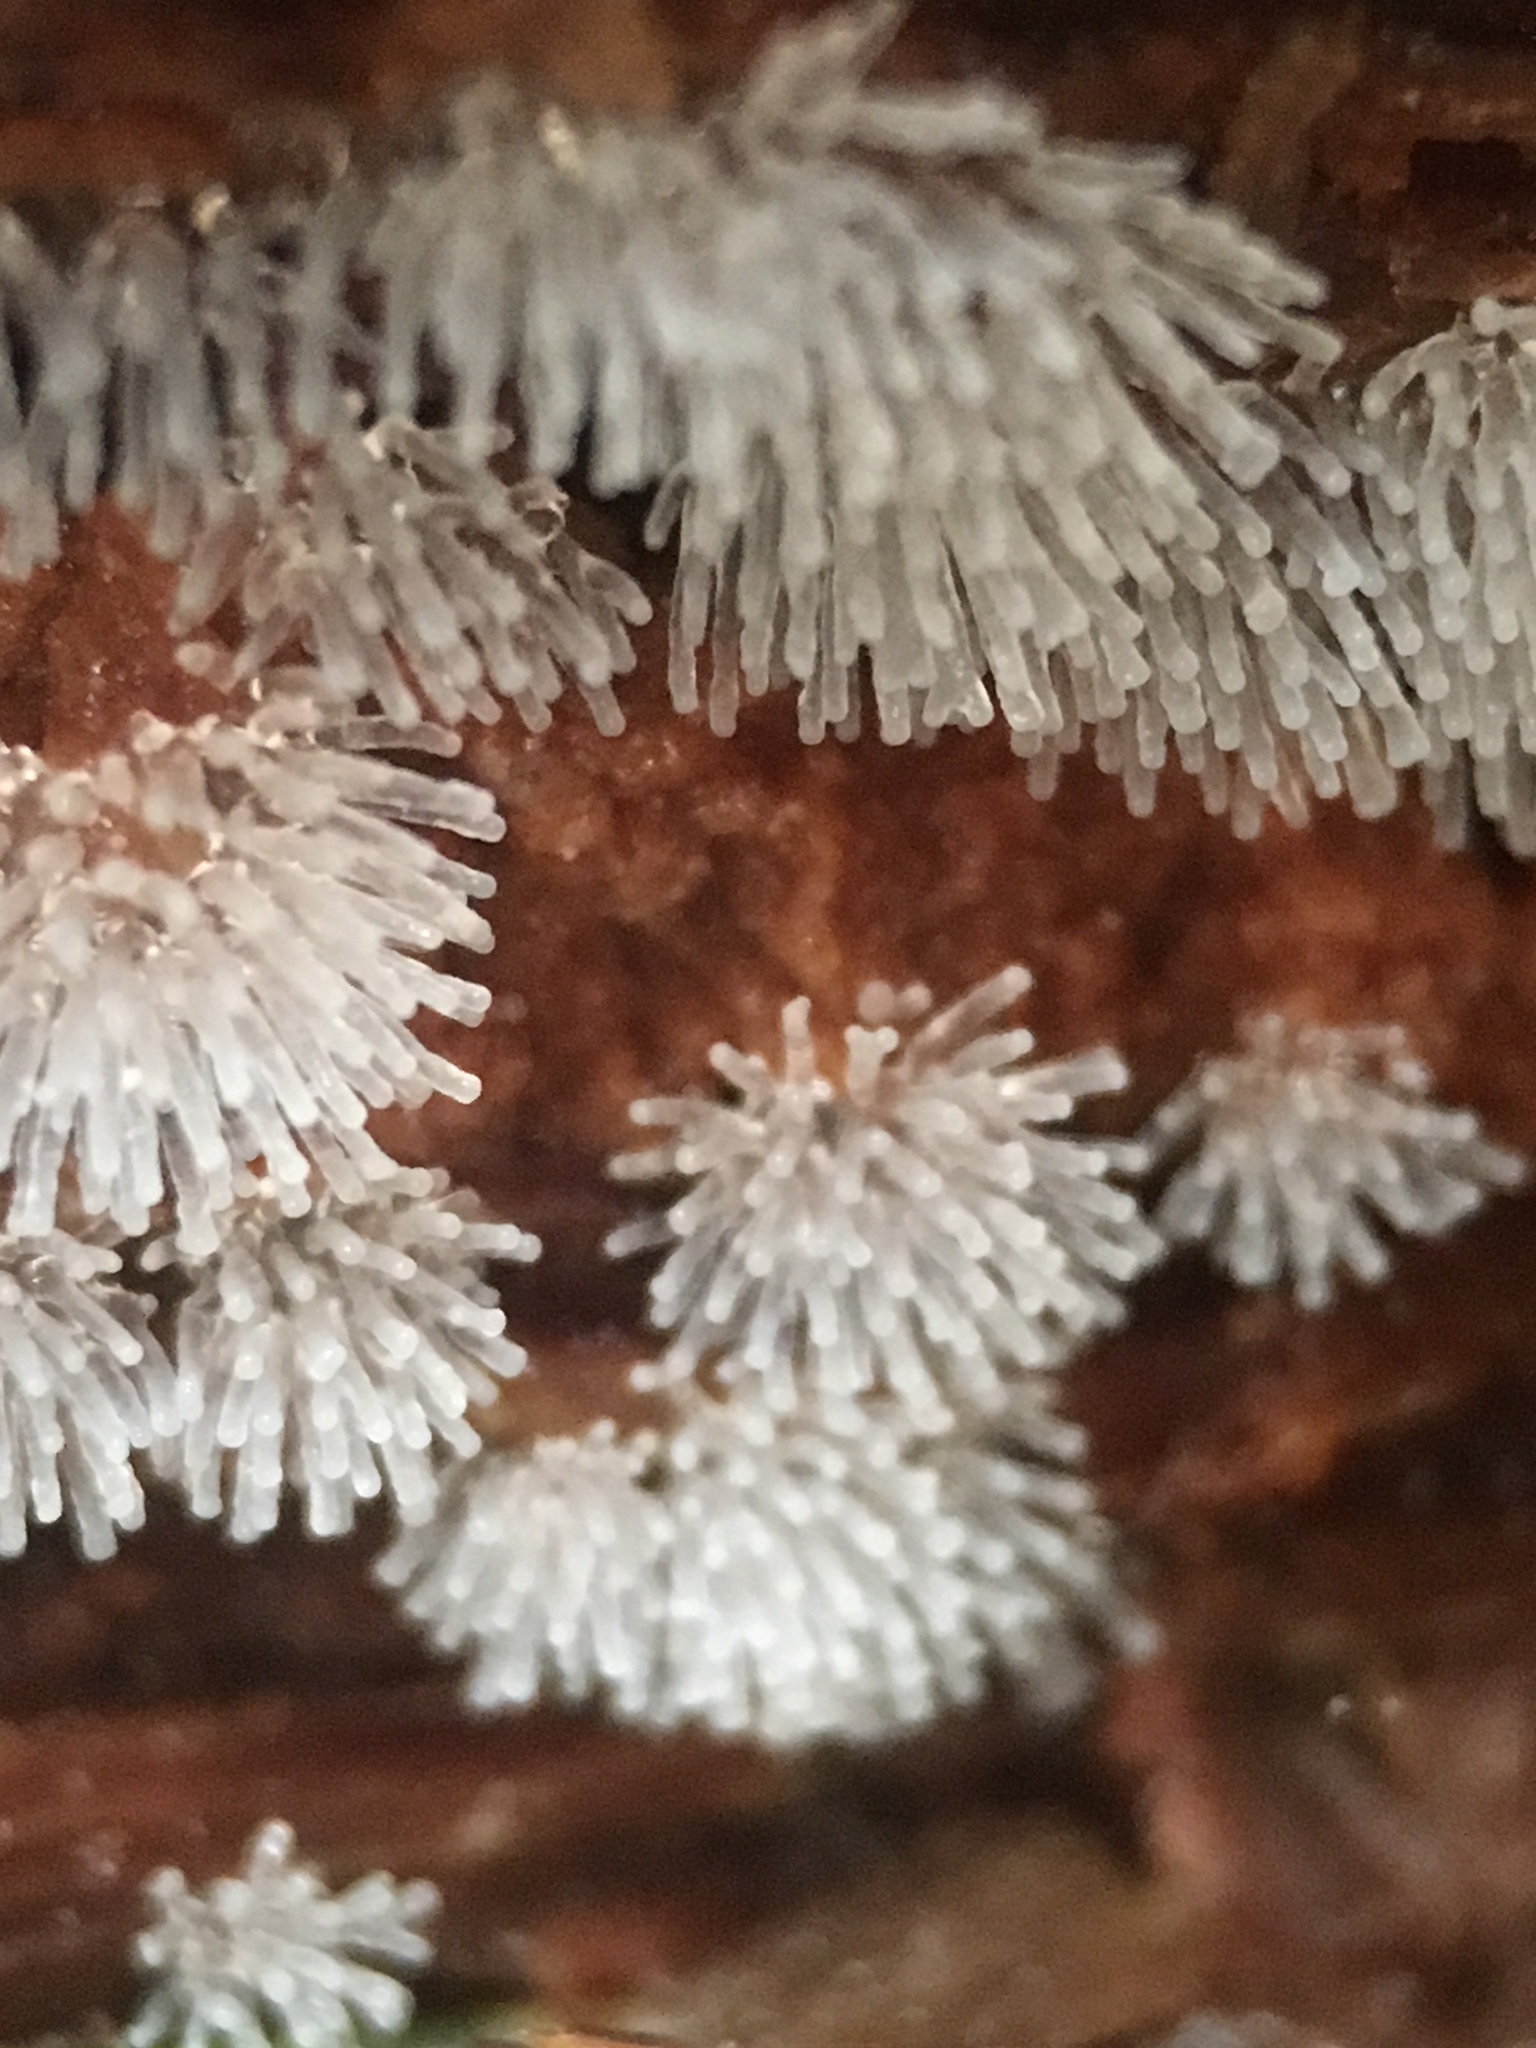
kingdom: Protozoa
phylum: Mycetozoa
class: Protosteliomycetes
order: Ceratiomyxales
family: Ceratiomyxaceae
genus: Ceratiomyxa
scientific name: Ceratiomyxa fruticulosa
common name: Honeycomb coral slime mold
